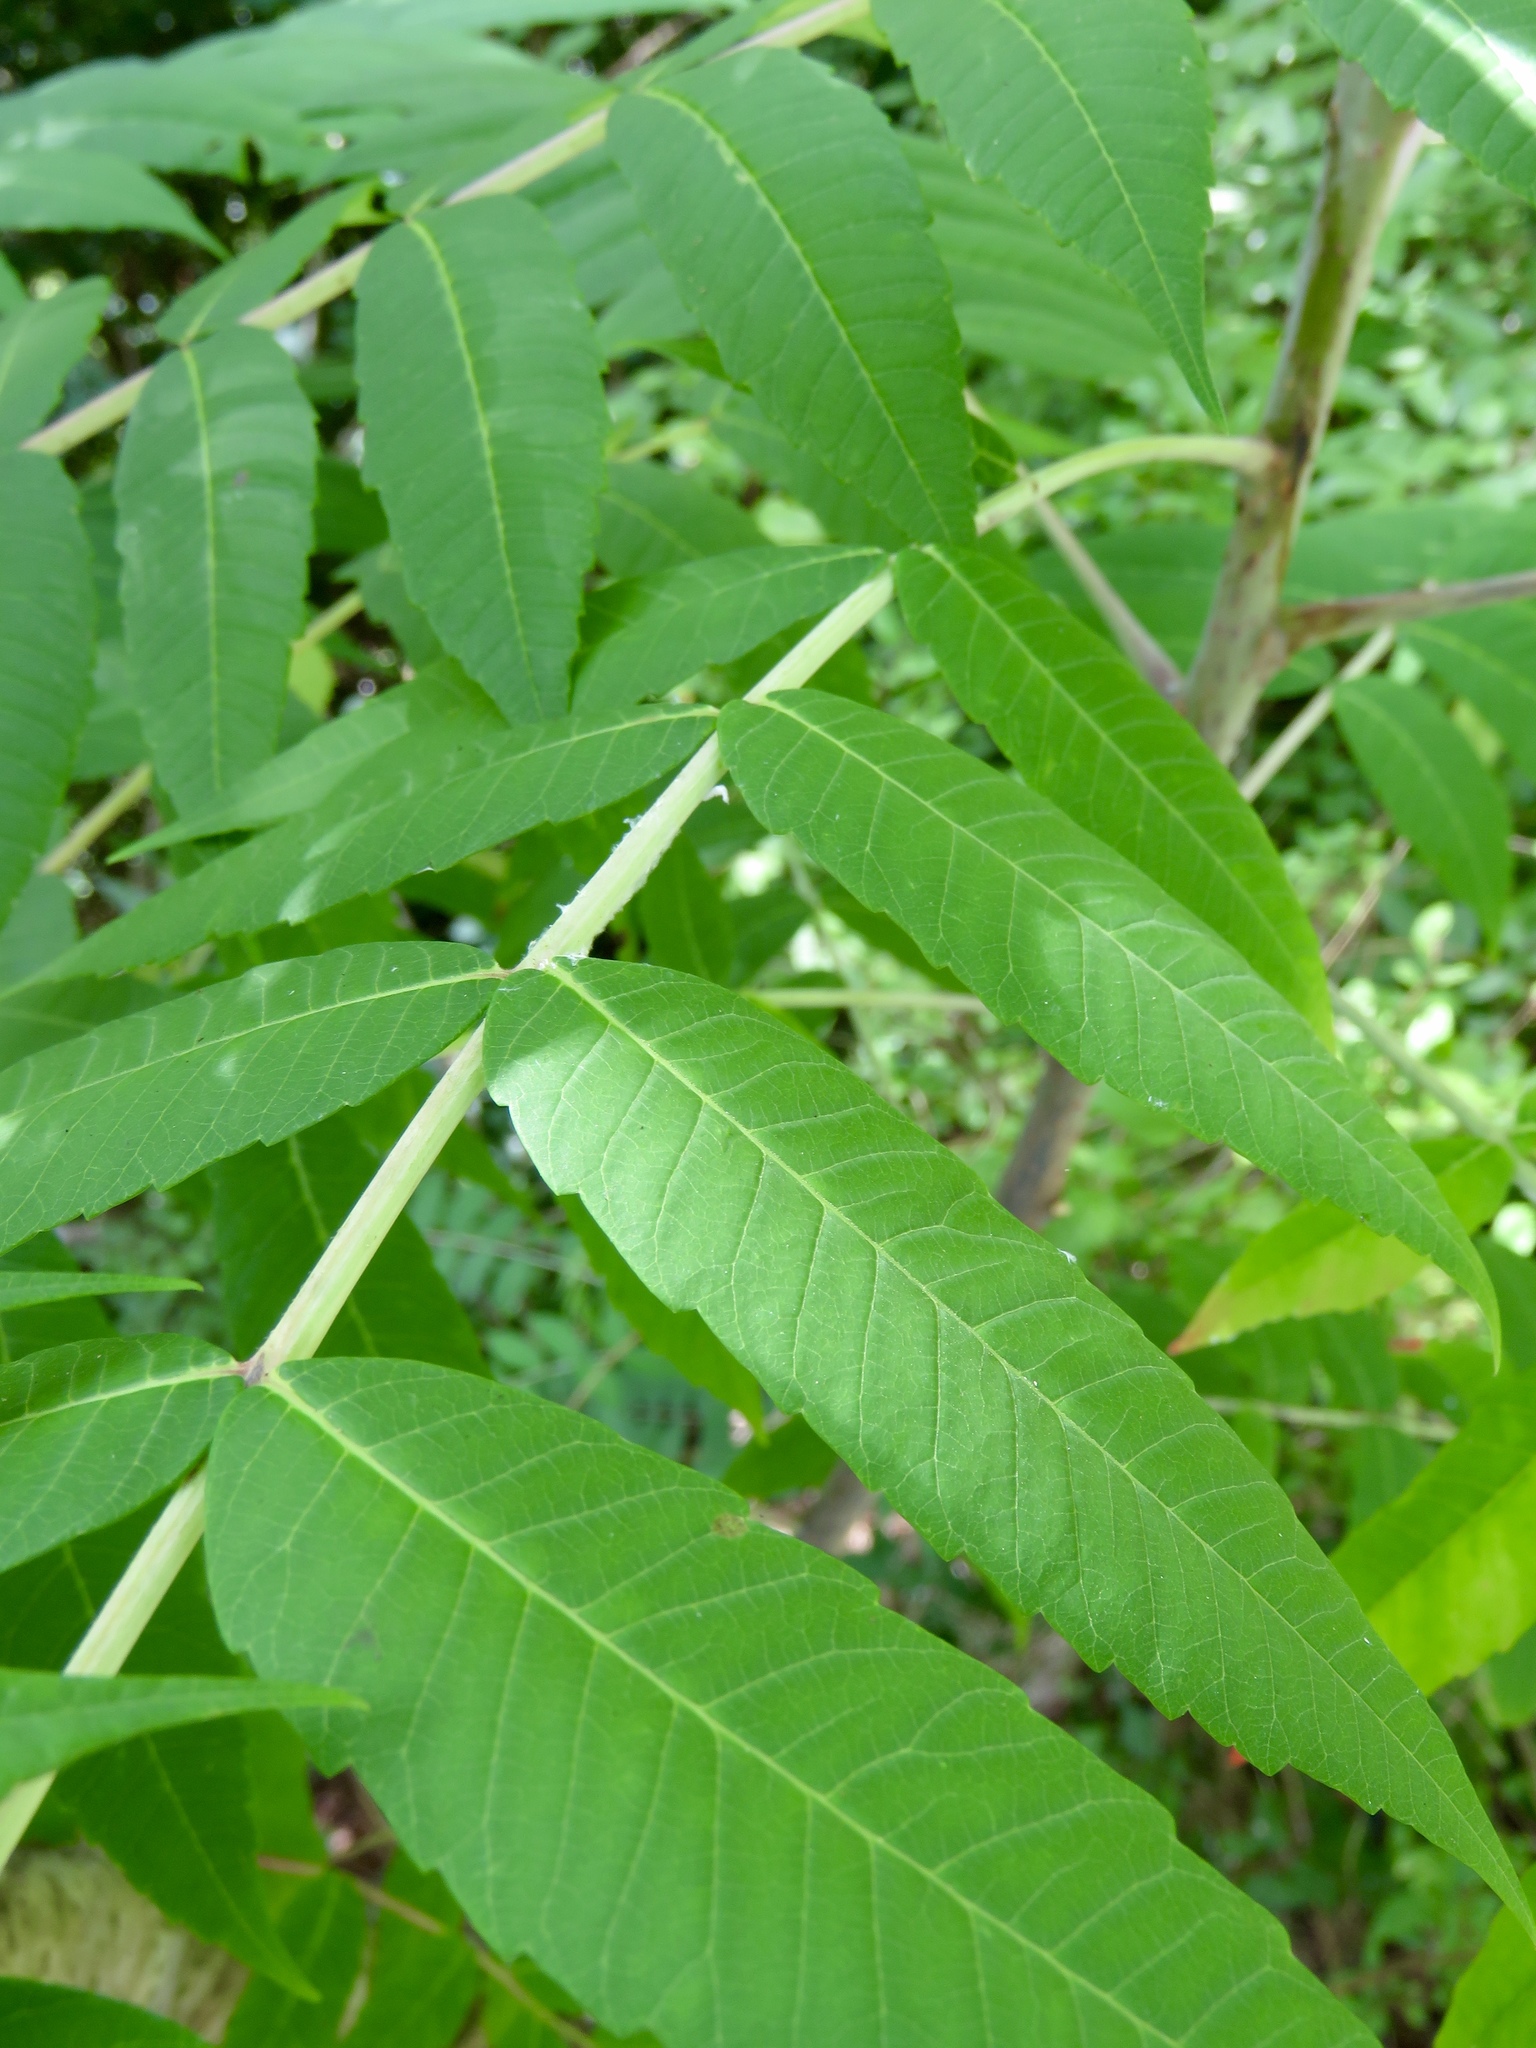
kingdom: Plantae
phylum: Tracheophyta
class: Magnoliopsida
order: Sapindales
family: Anacardiaceae
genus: Rhus
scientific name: Rhus glabra
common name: Scarlet sumac
